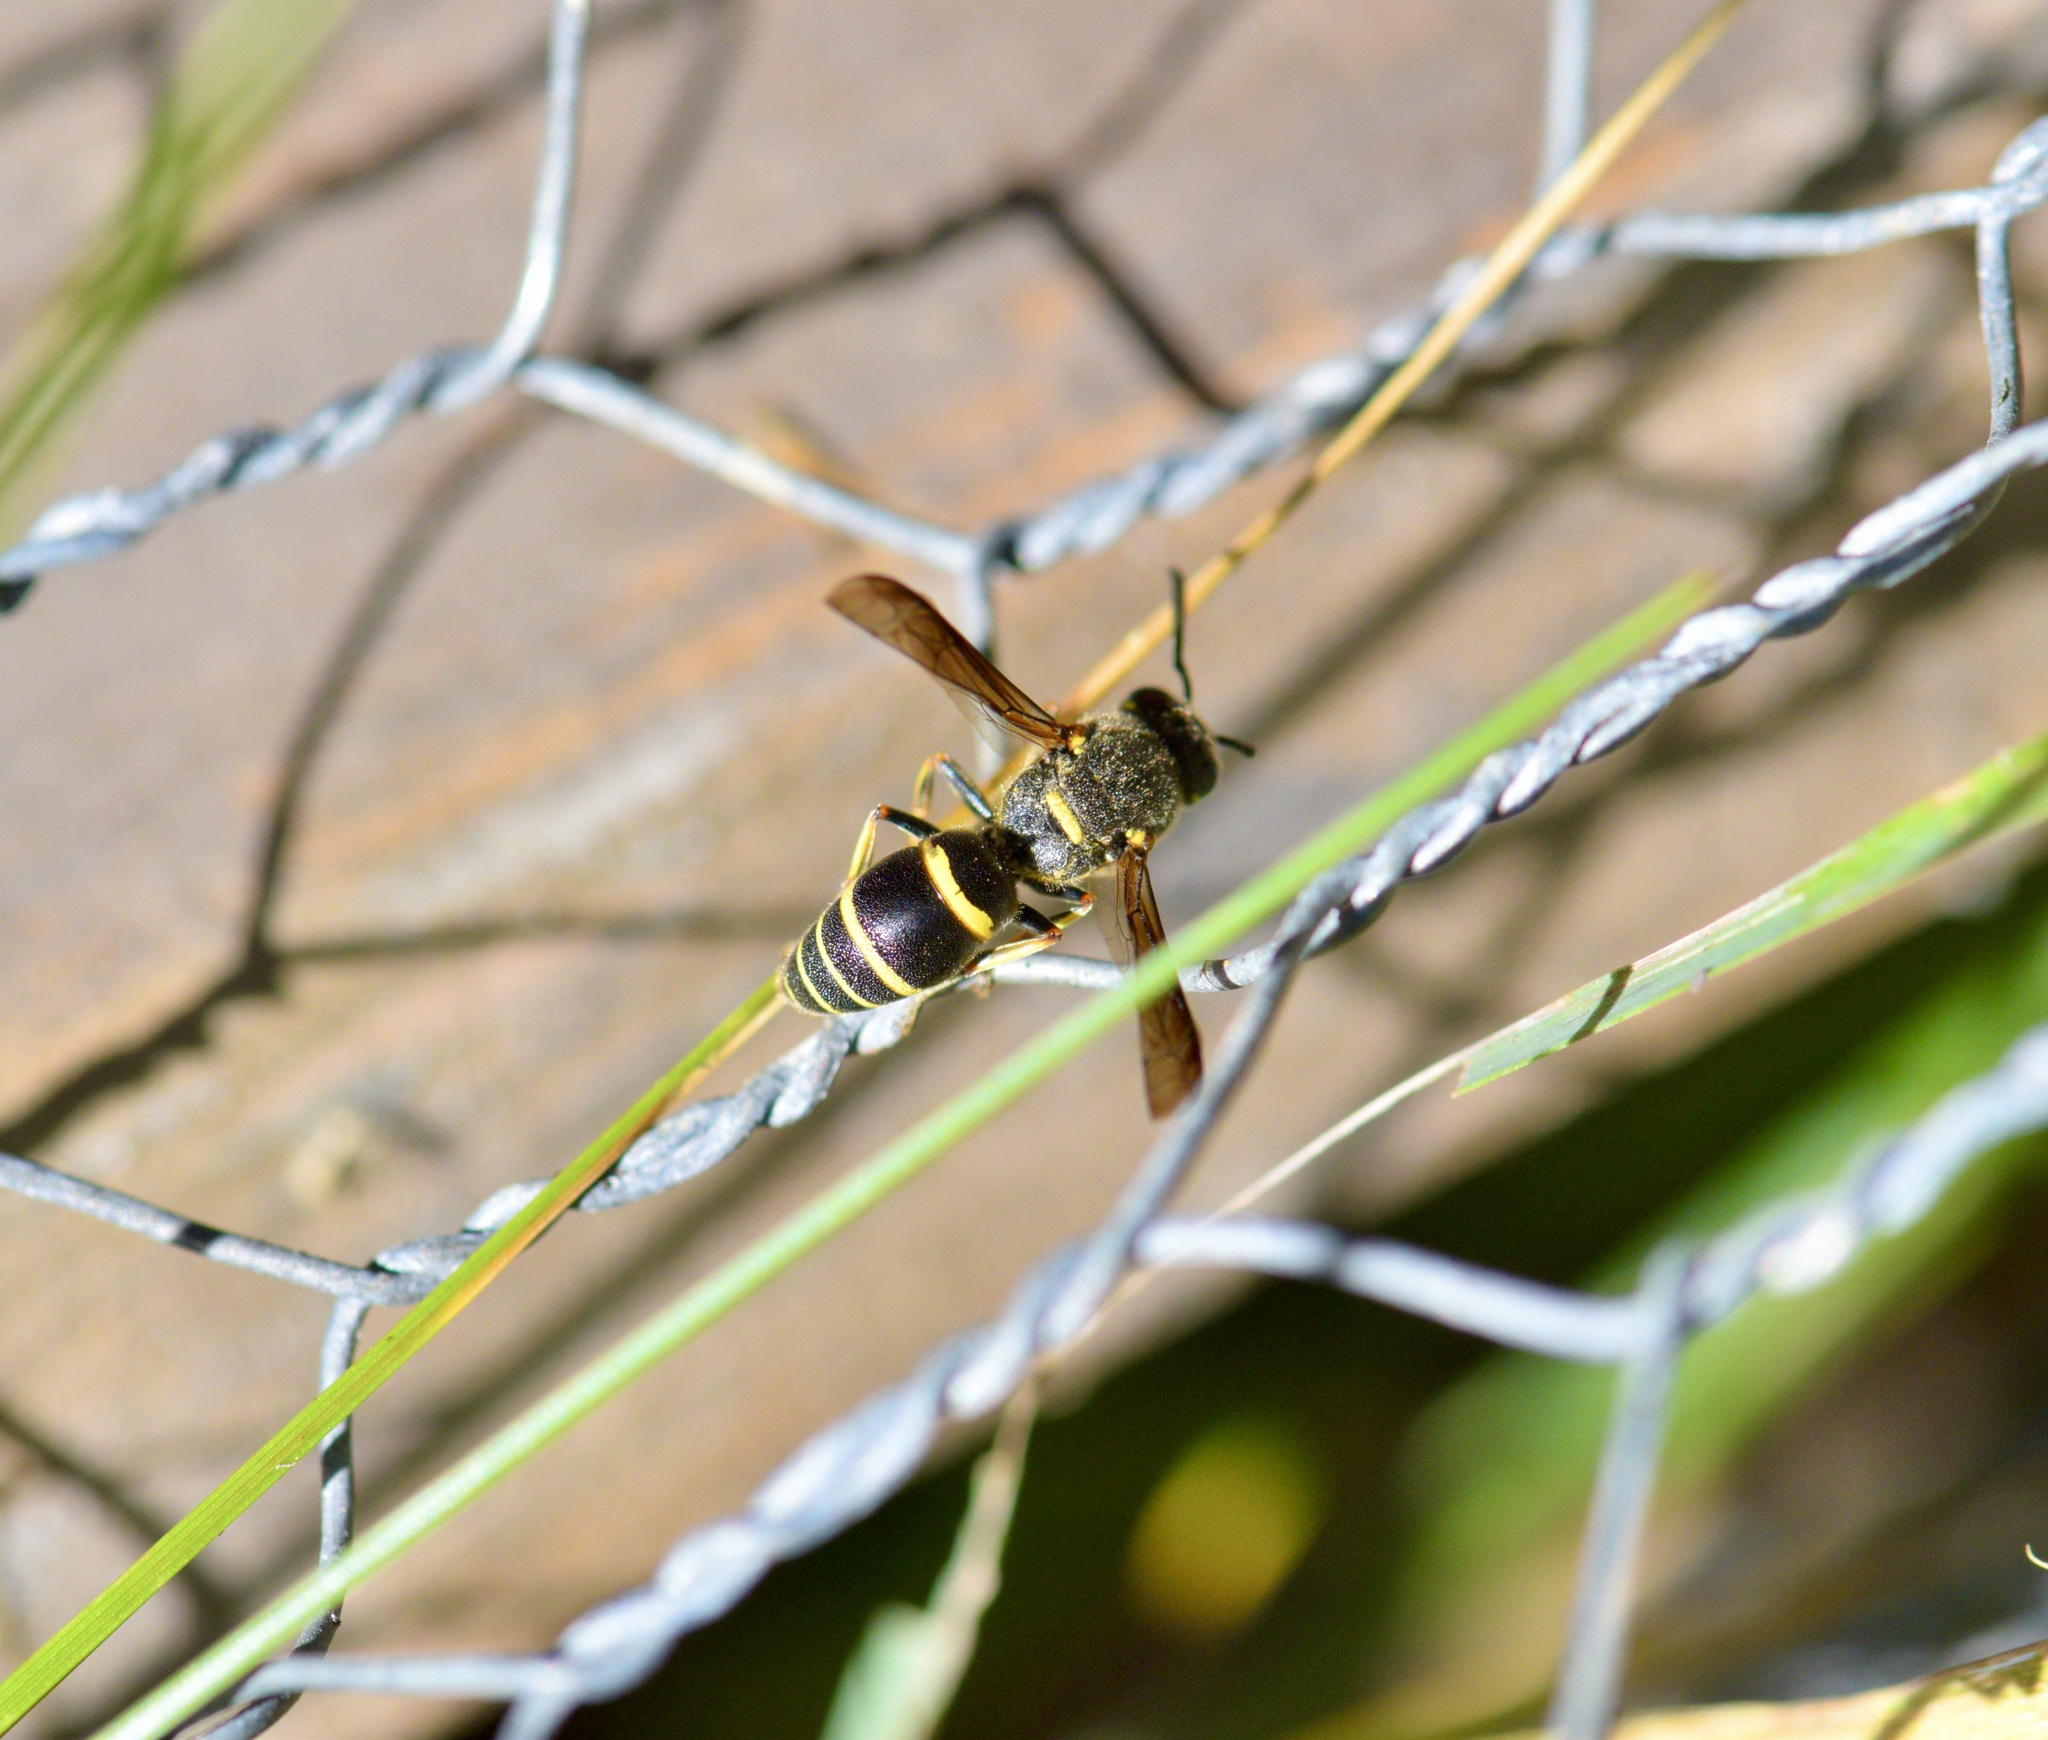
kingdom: Animalia
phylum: Arthropoda
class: Insecta
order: Hymenoptera
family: Eumenidae
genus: Euodynerus
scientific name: Euodynerus foraminatus
